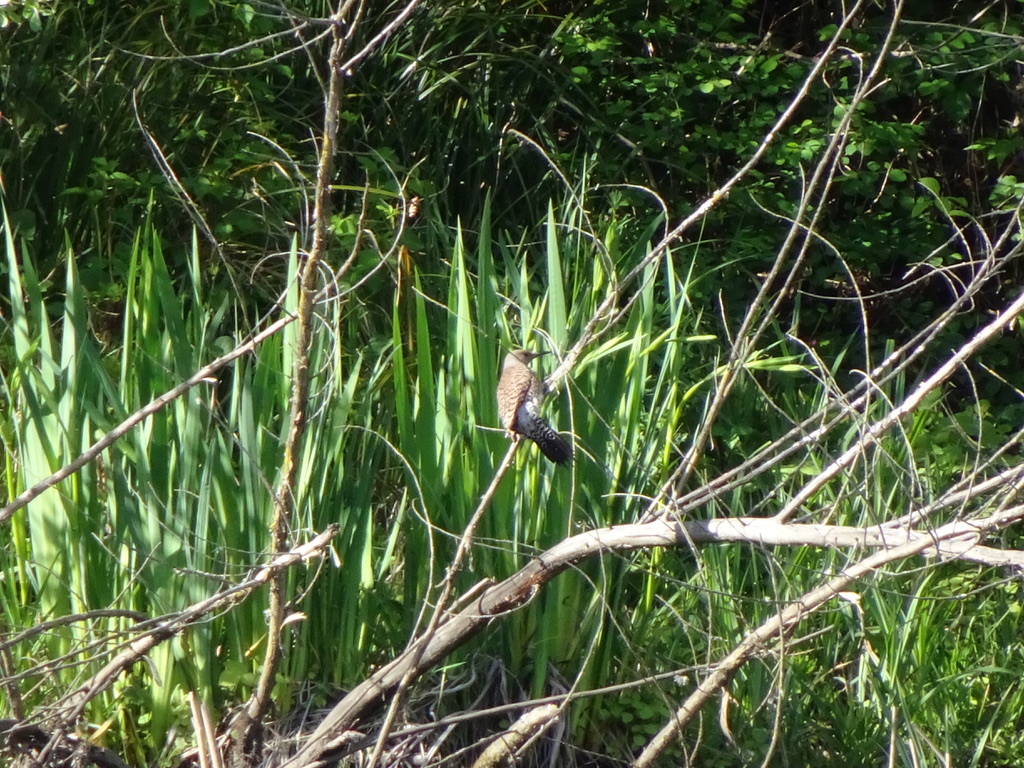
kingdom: Animalia
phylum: Chordata
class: Aves
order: Piciformes
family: Picidae
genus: Colaptes
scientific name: Colaptes auratus
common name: Northern flicker
